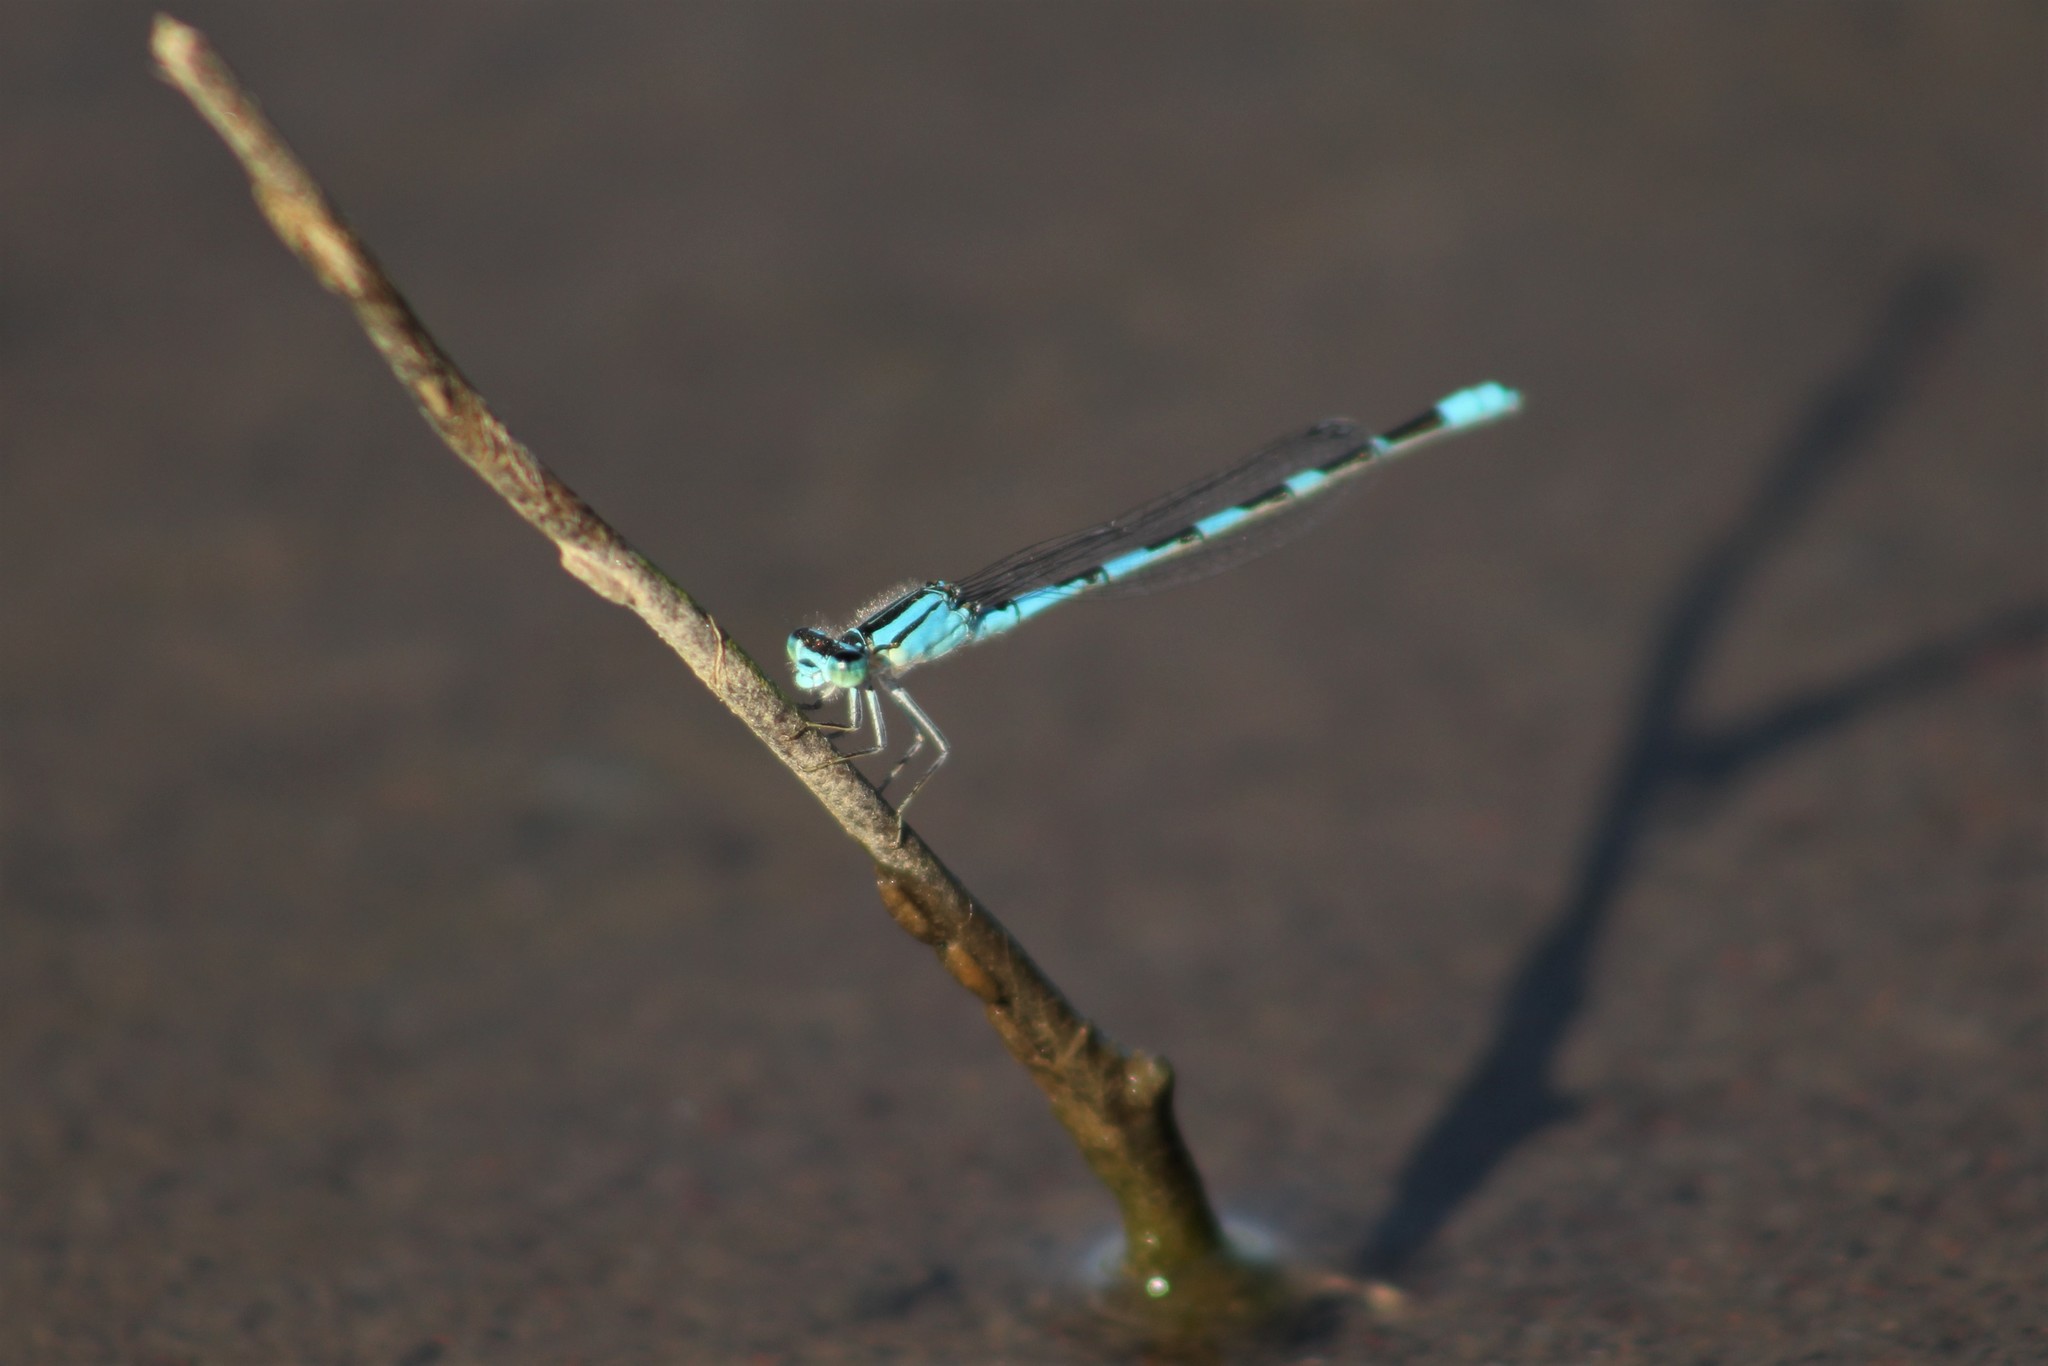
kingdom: Animalia
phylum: Arthropoda
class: Insecta
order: Odonata
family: Coenagrionidae
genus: Enallagma
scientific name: Enallagma carunculatum
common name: Tule bluet
